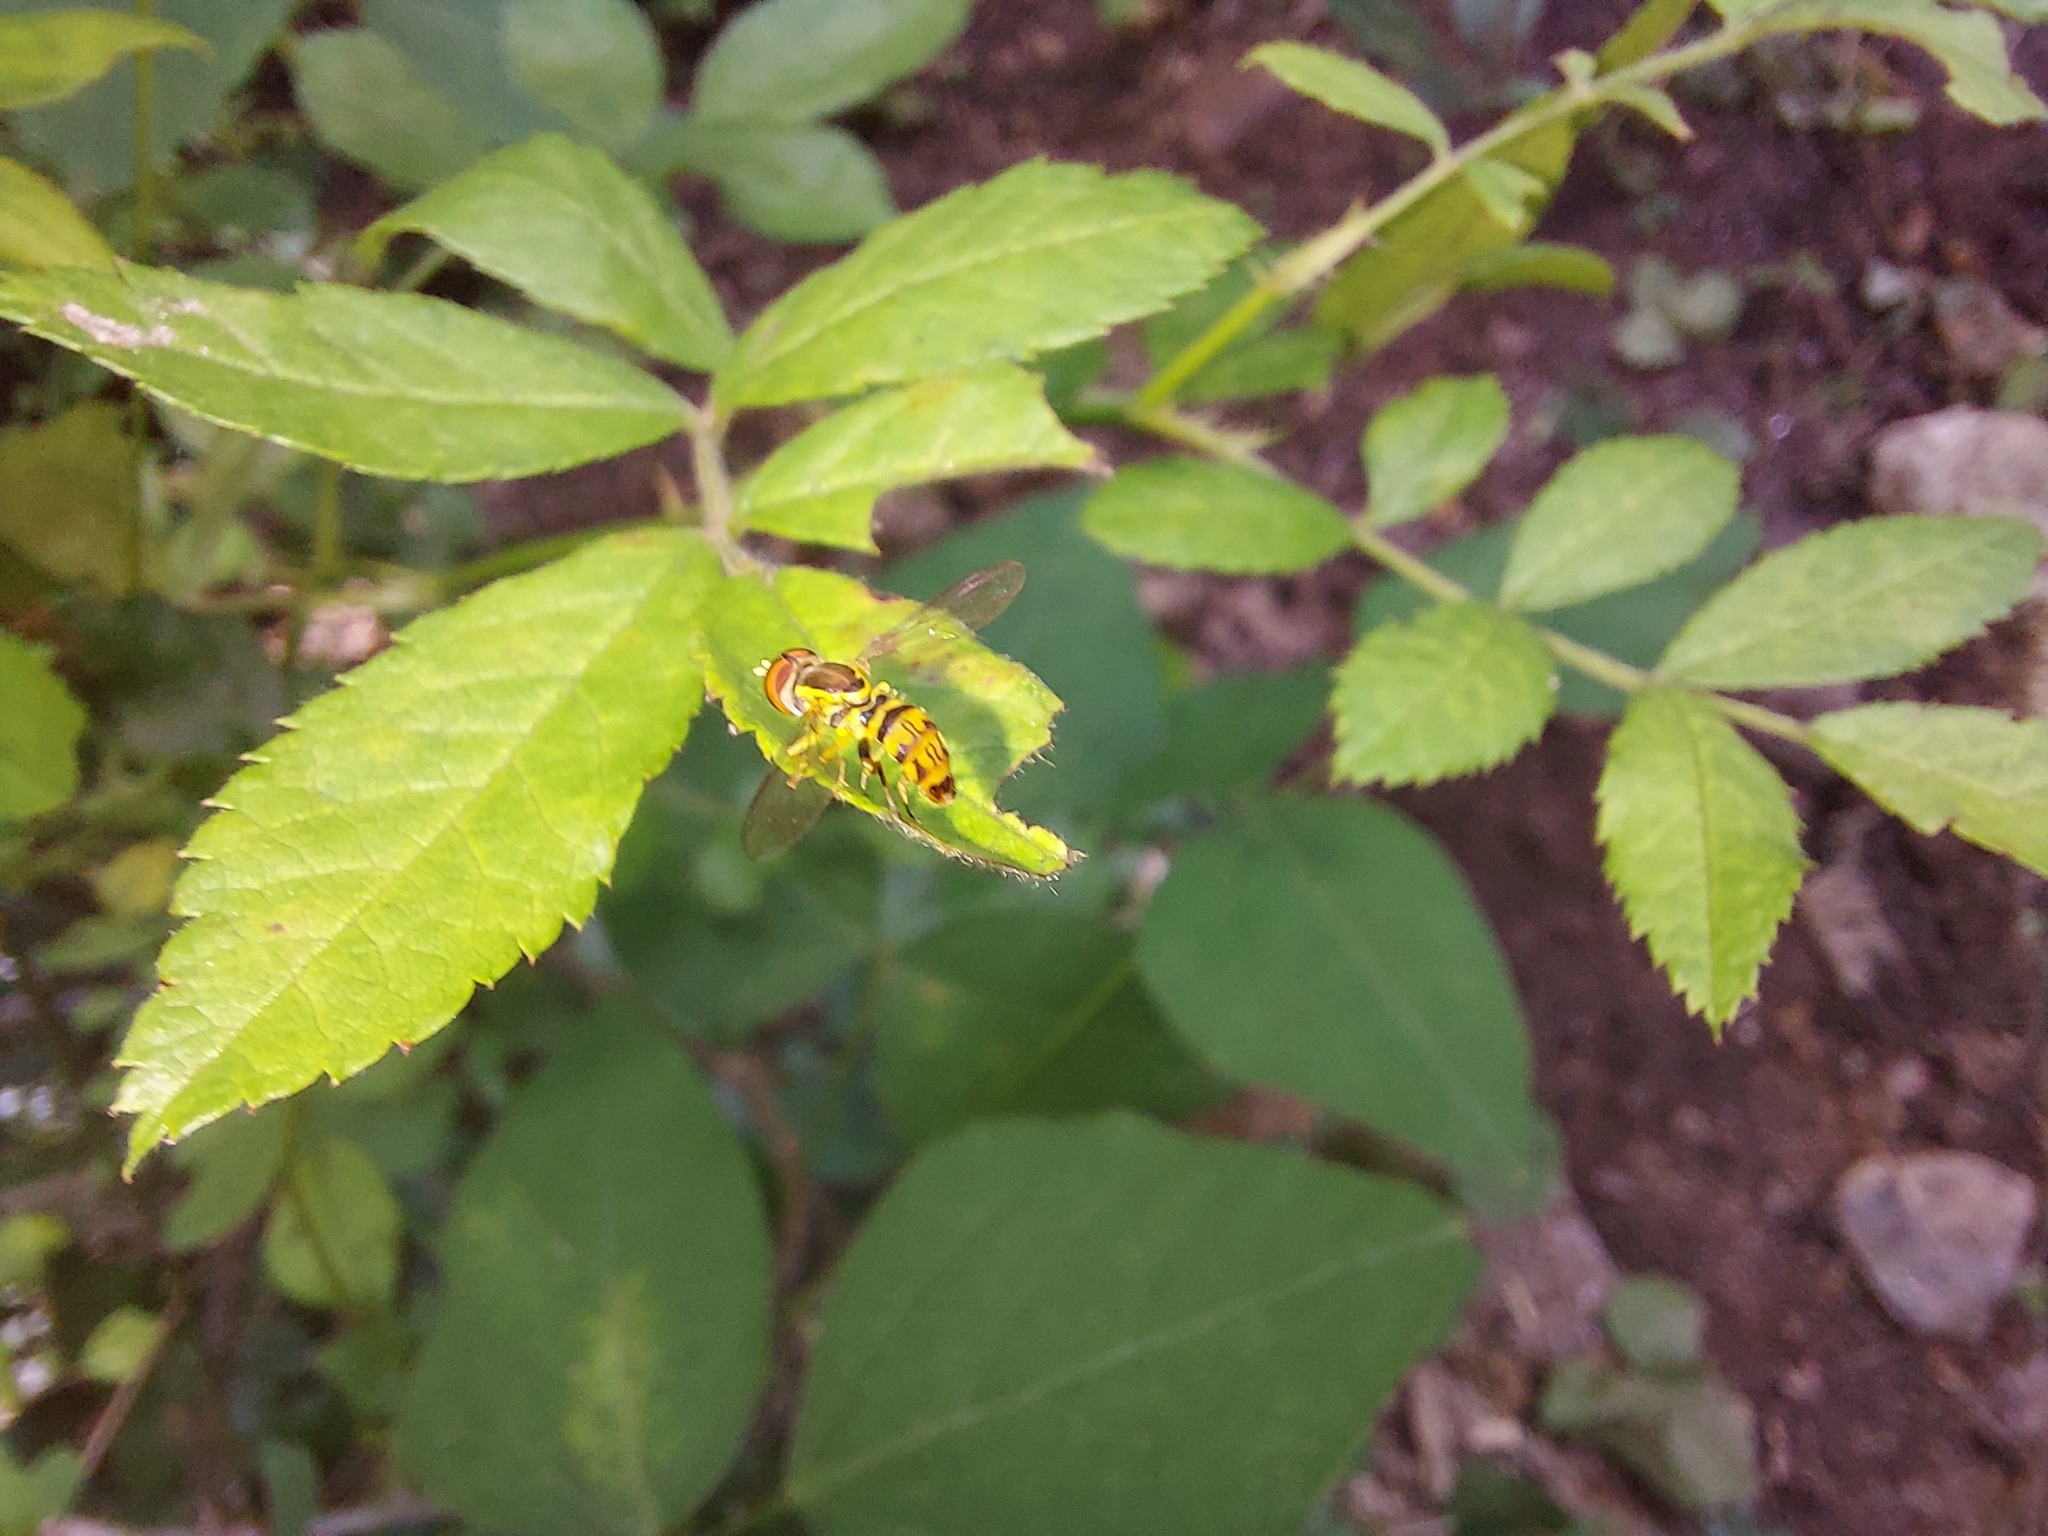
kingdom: Animalia
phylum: Arthropoda
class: Insecta
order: Diptera
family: Syrphidae
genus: Toxomerus
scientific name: Toxomerus geminatus
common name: Eastern calligrapher
